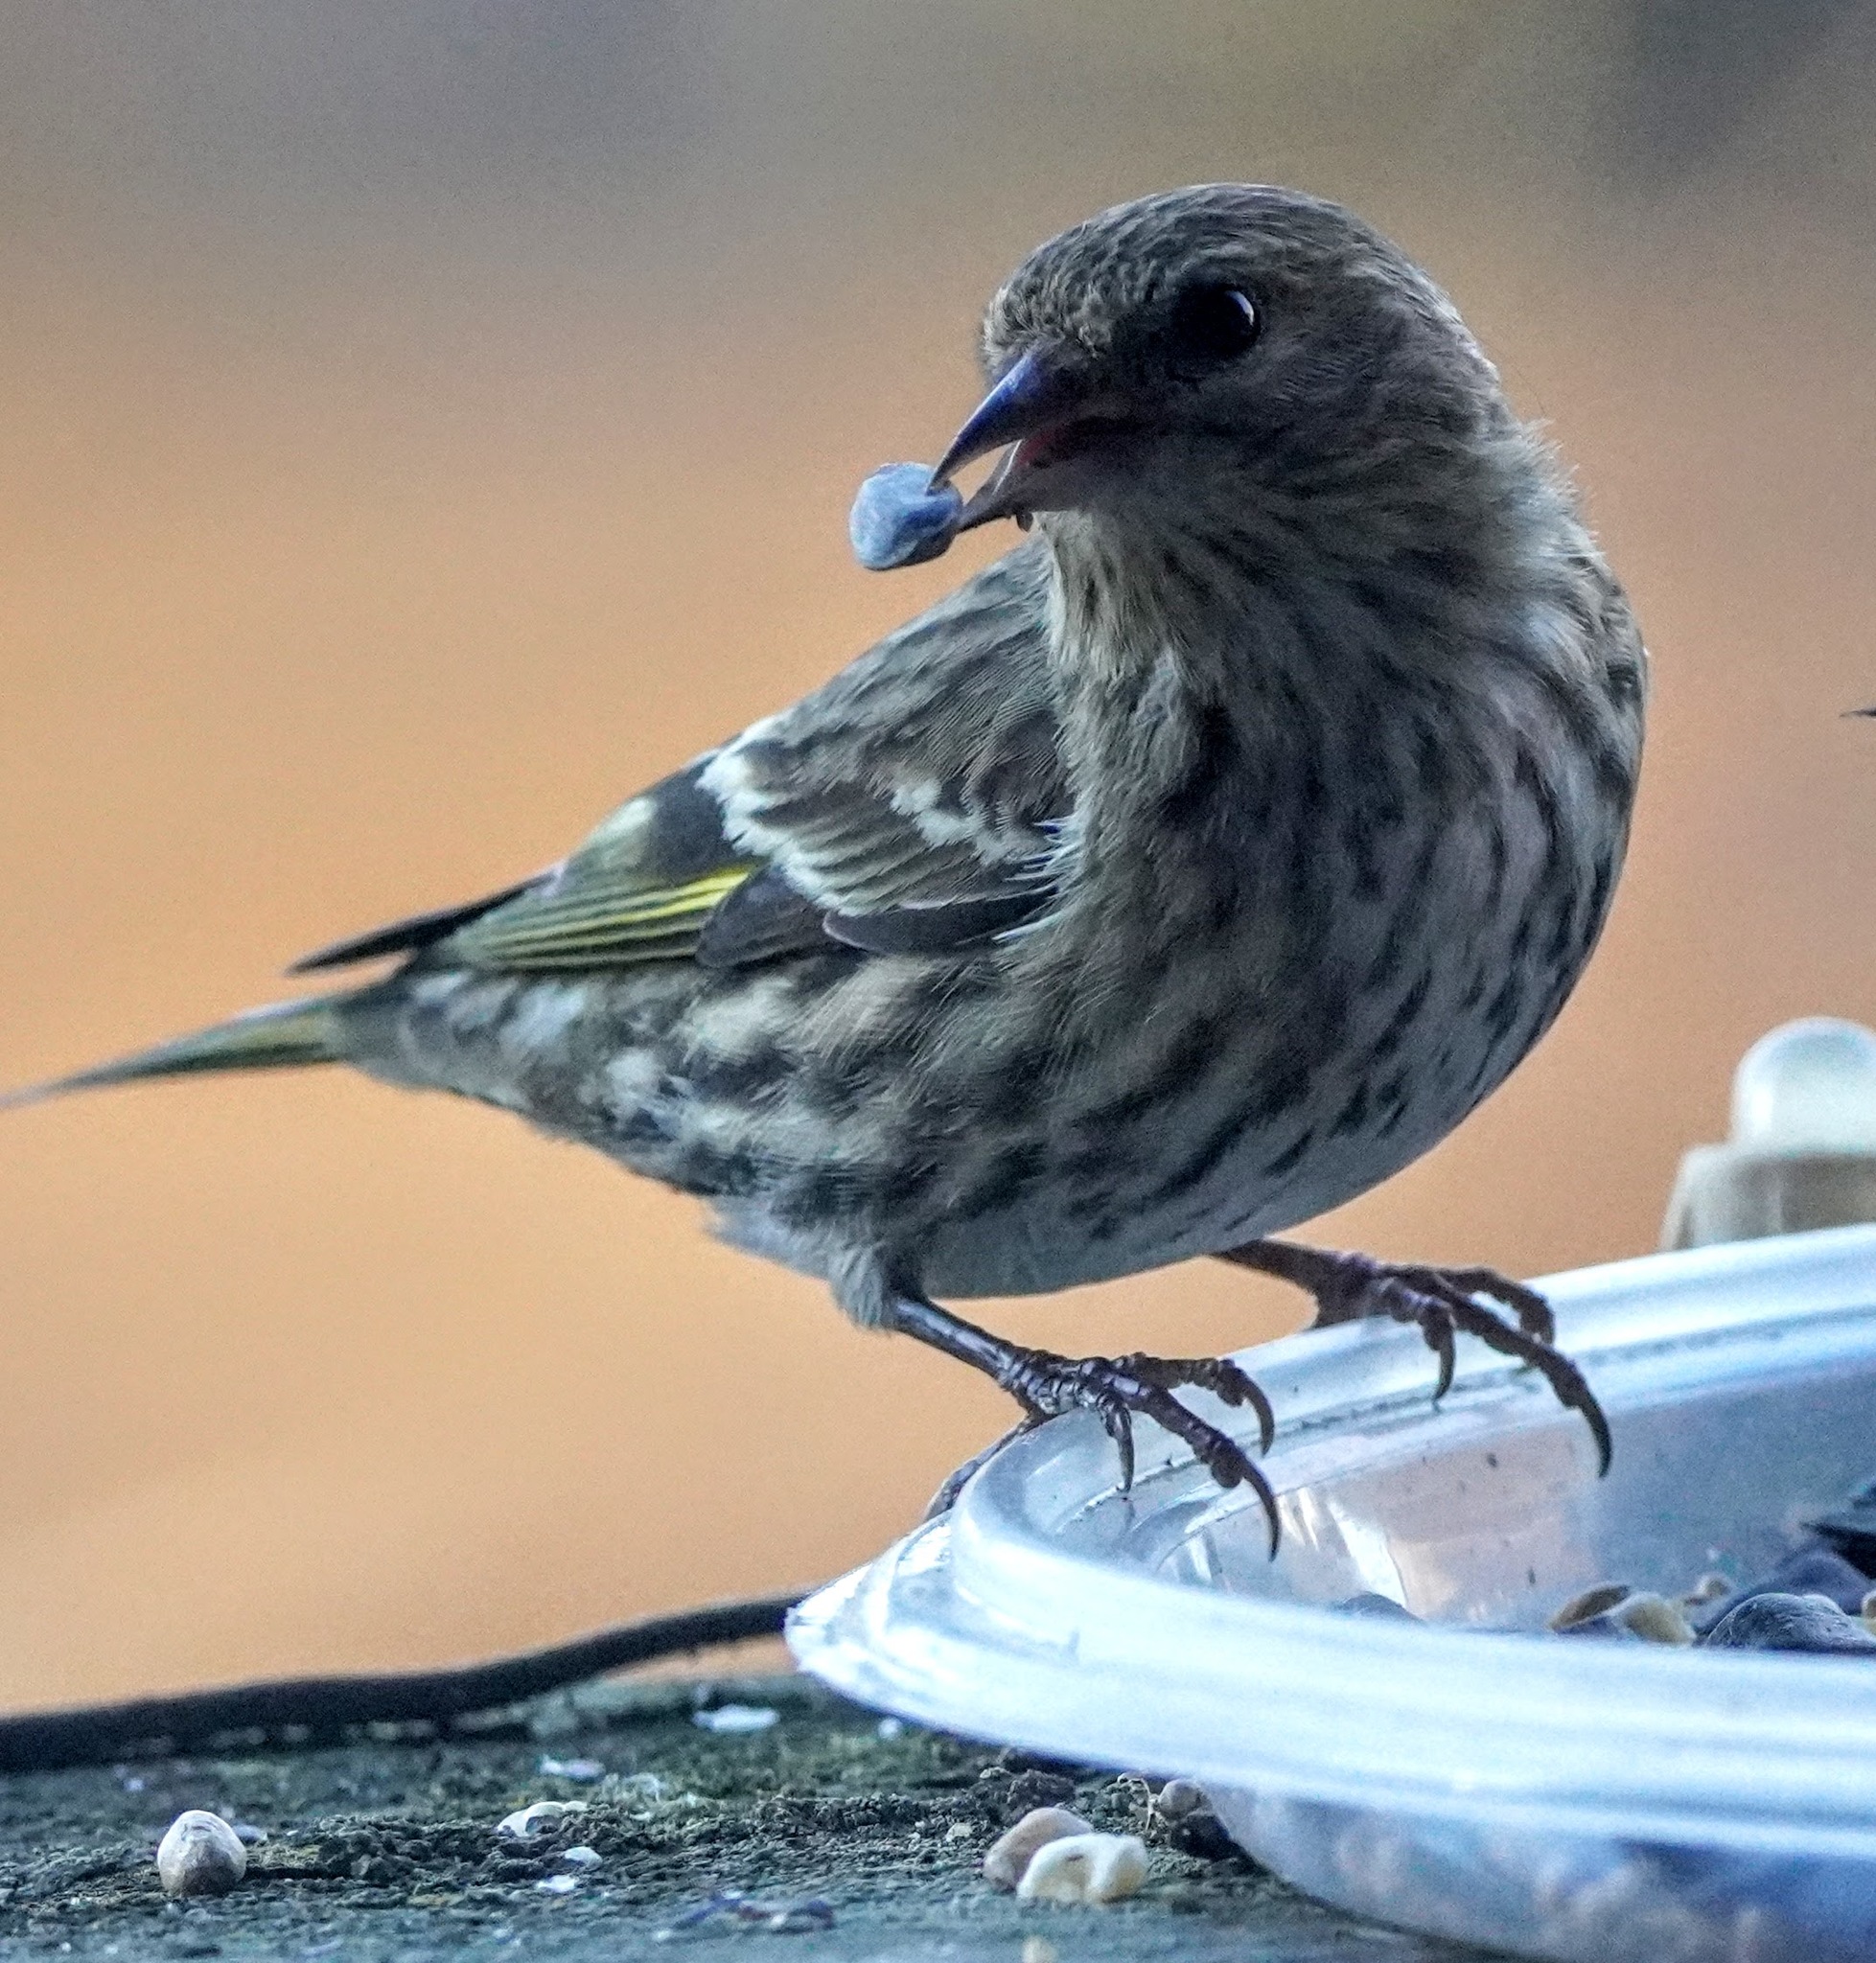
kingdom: Animalia
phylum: Chordata
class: Aves
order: Passeriformes
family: Fringillidae
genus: Spinus
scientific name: Spinus pinus
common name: Pine siskin
